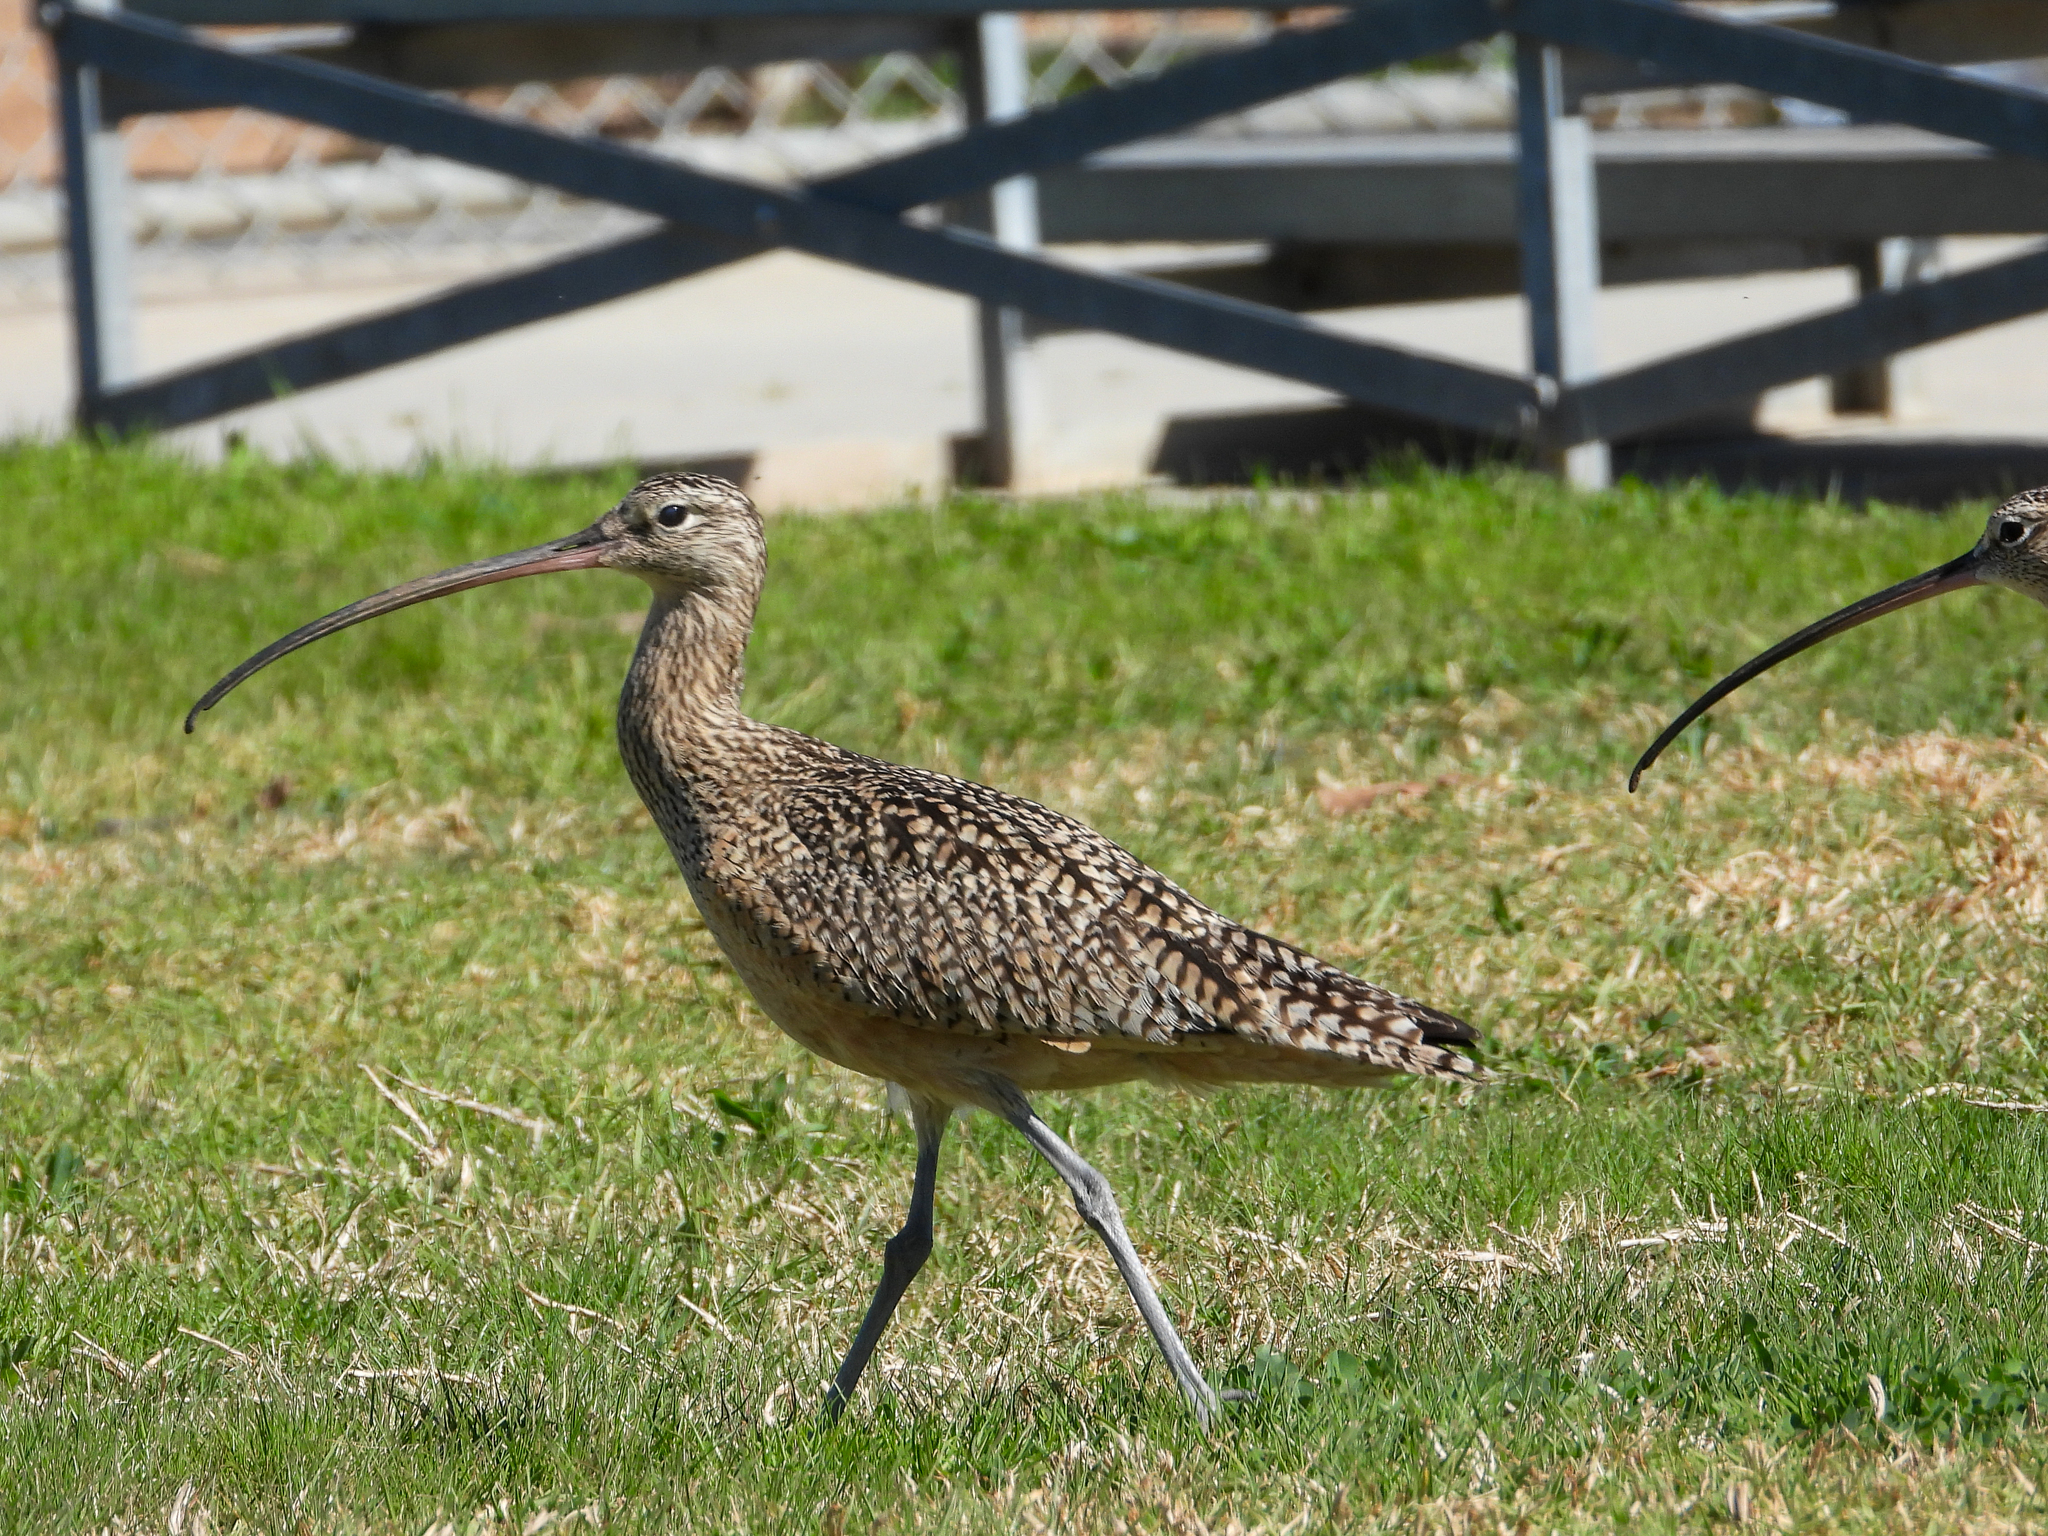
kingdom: Animalia
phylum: Chordata
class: Aves
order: Charadriiformes
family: Scolopacidae
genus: Numenius
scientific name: Numenius americanus
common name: Long-billed curlew
